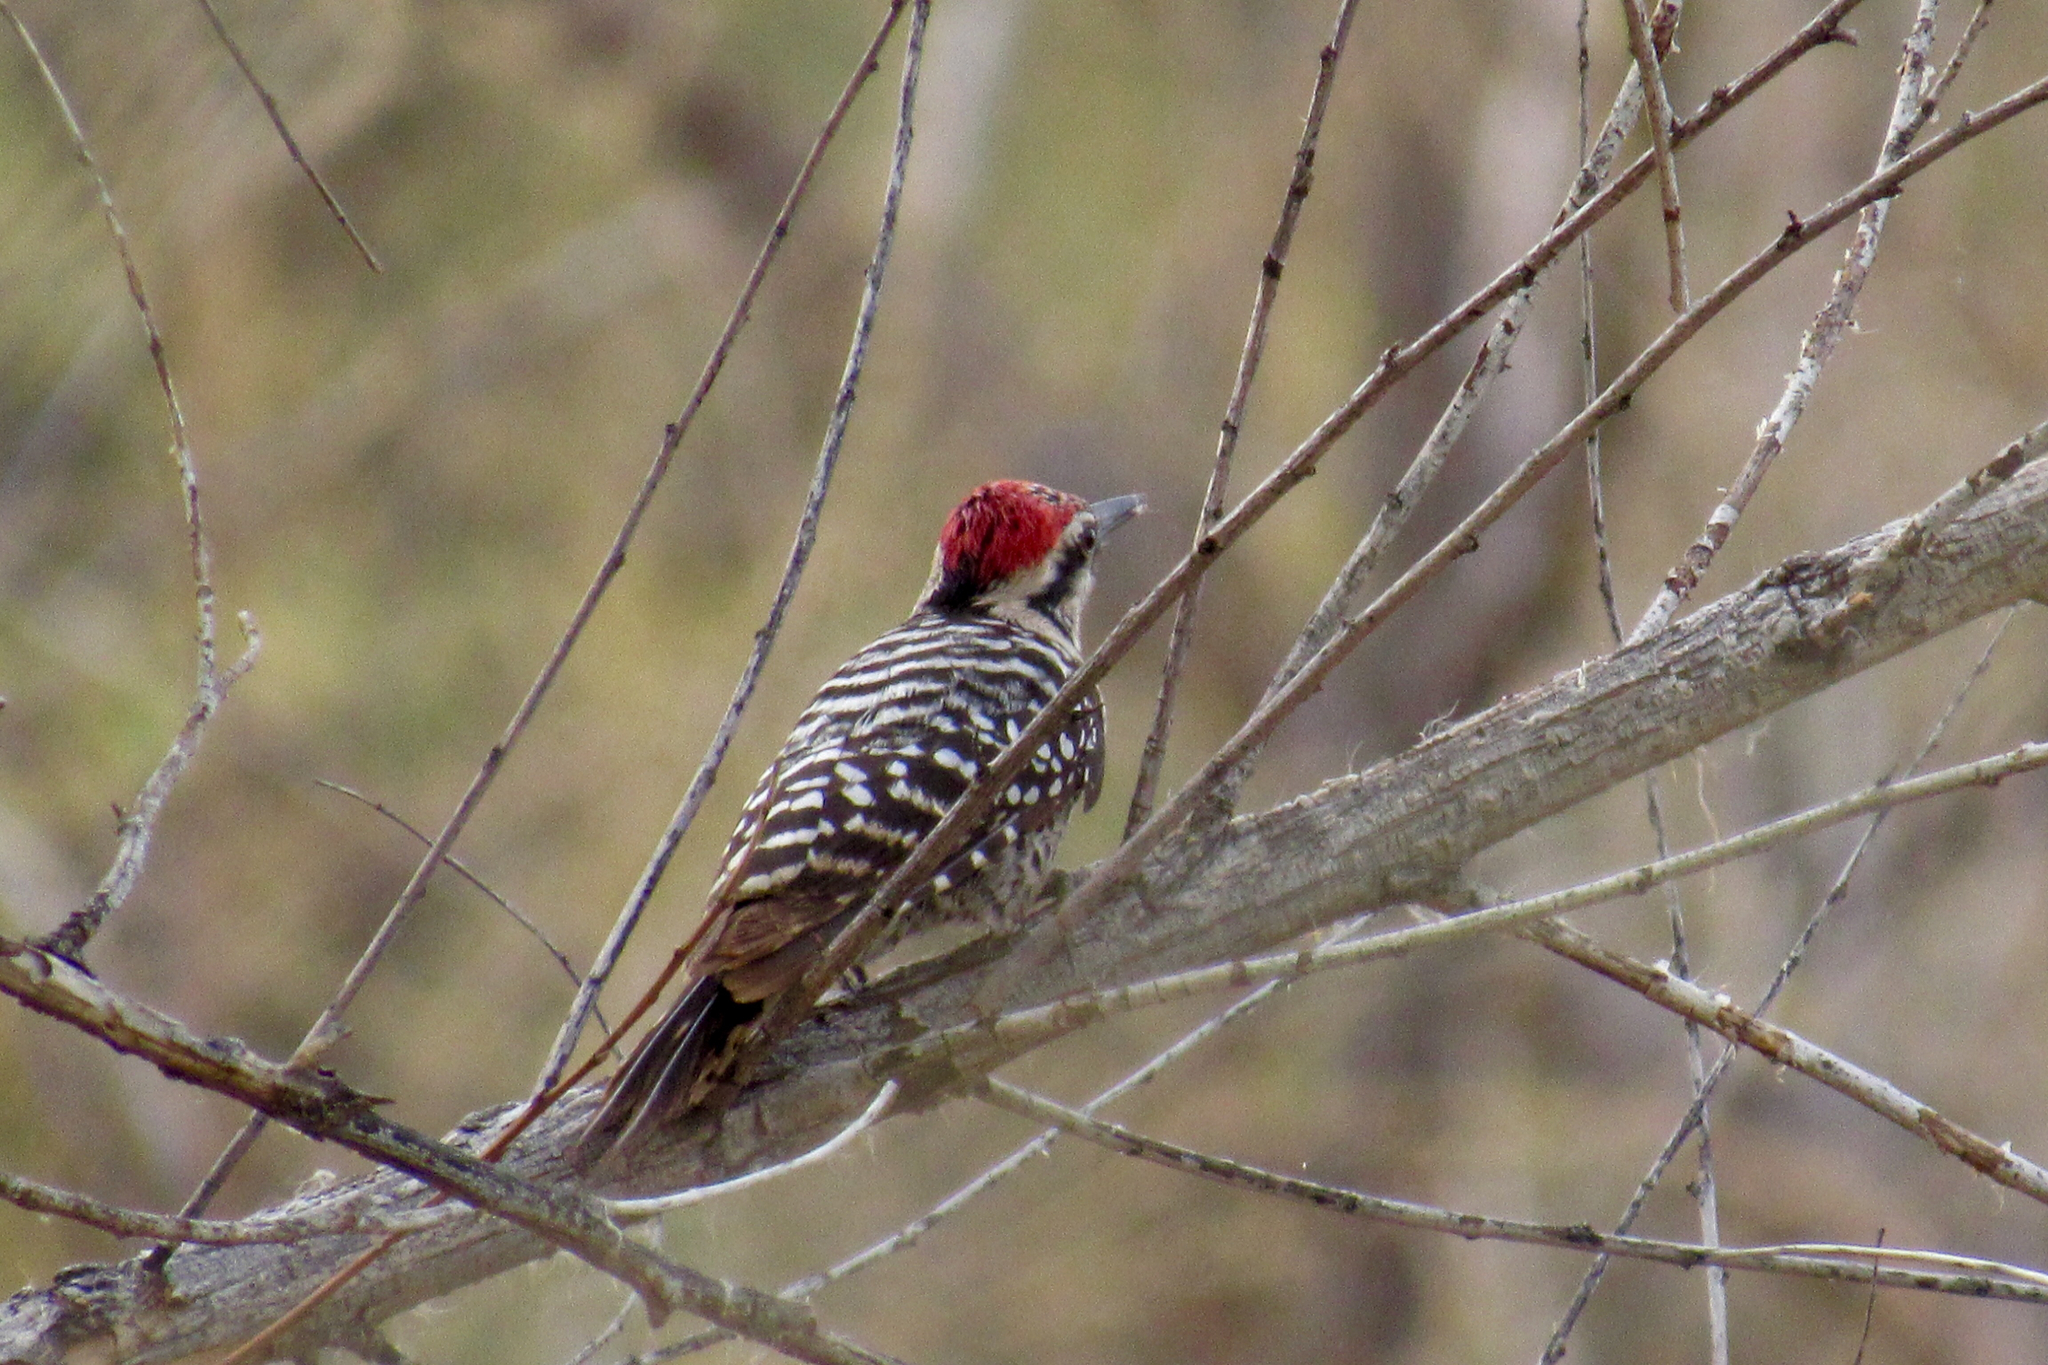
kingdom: Animalia
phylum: Chordata
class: Aves
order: Piciformes
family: Picidae
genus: Dryobates
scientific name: Dryobates scalaris
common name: Ladder-backed woodpecker
